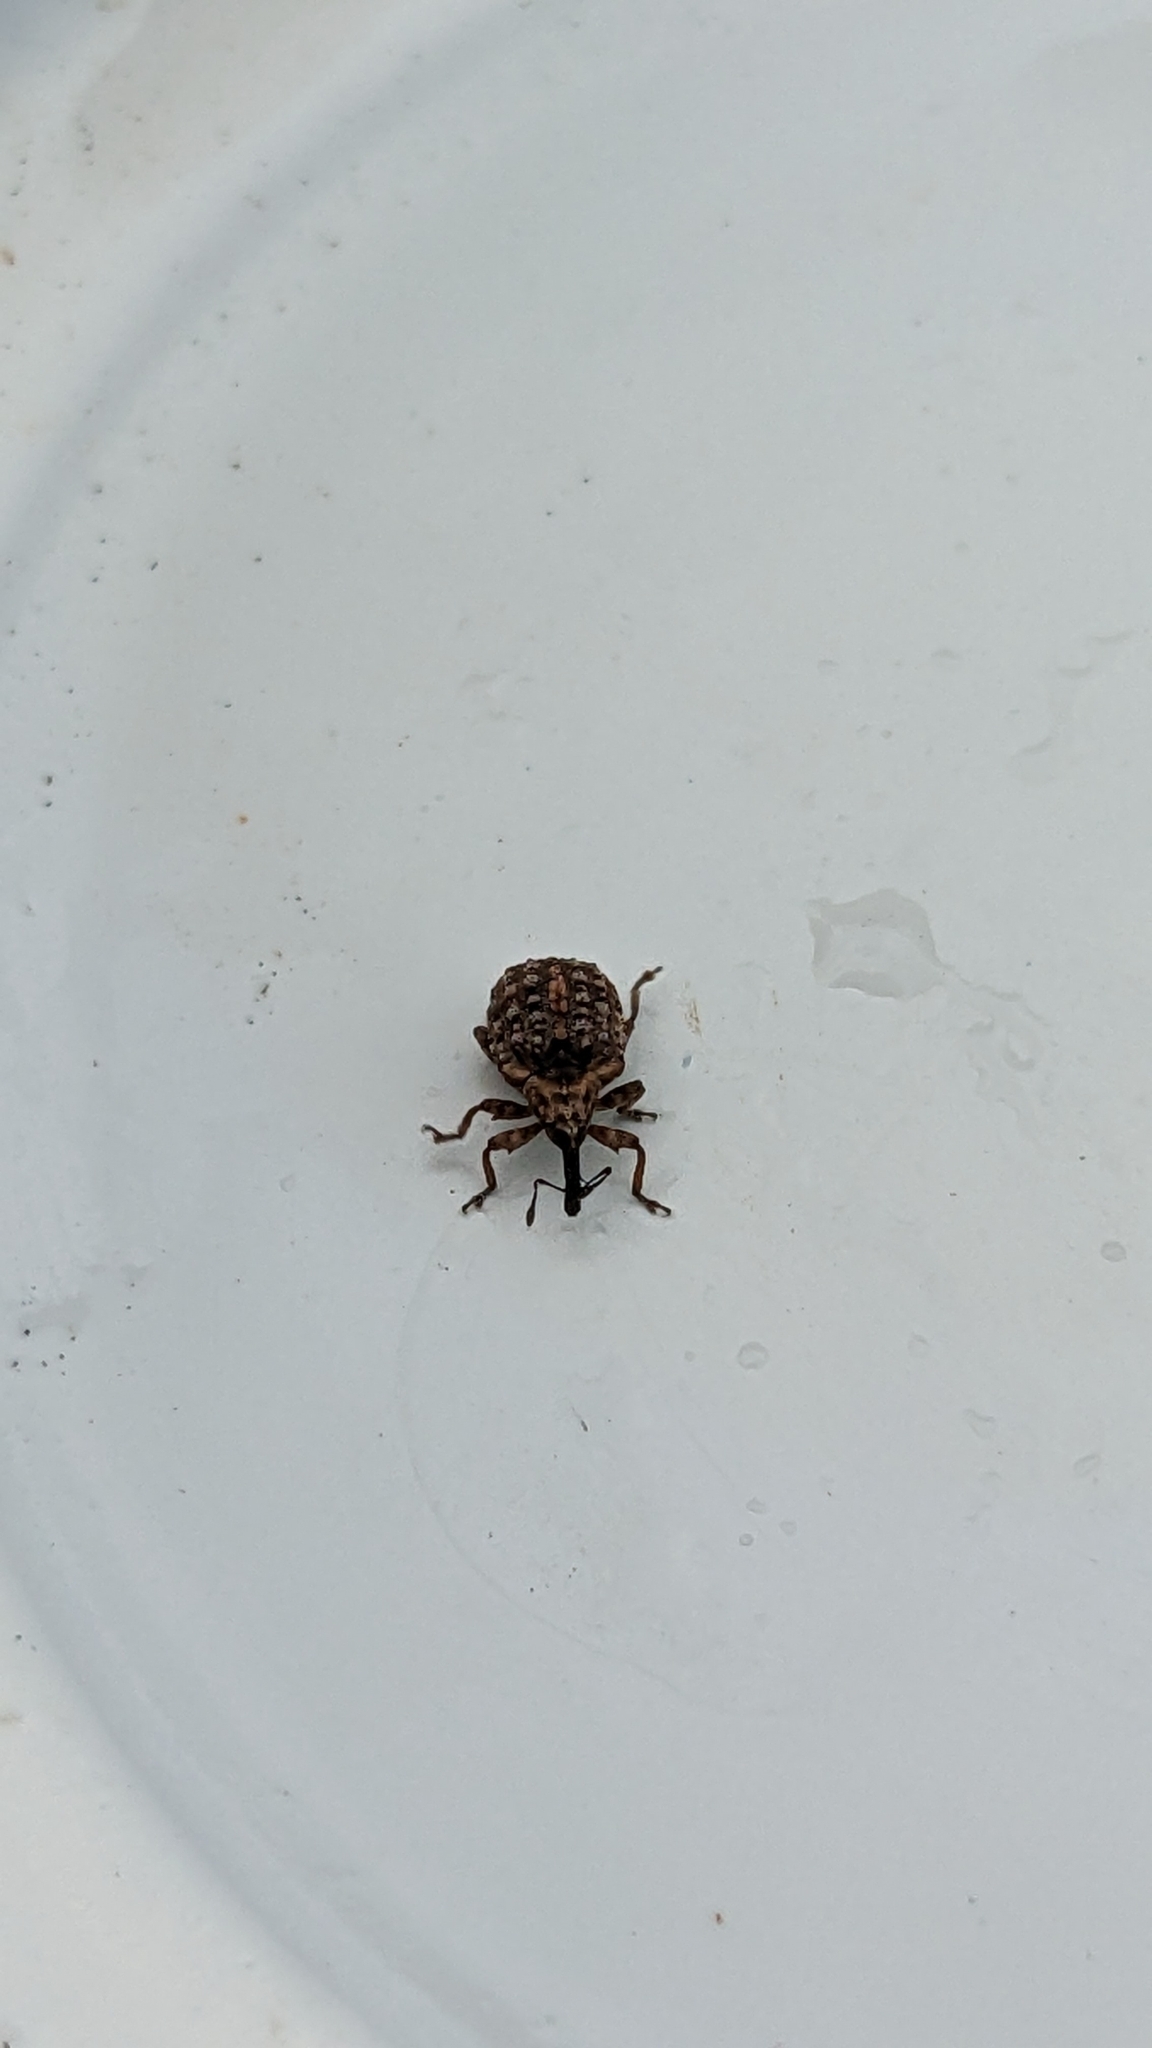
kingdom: Animalia
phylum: Arthropoda
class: Insecta
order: Coleoptera
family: Curculionidae
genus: Cleopus
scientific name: Cleopus japonicus
